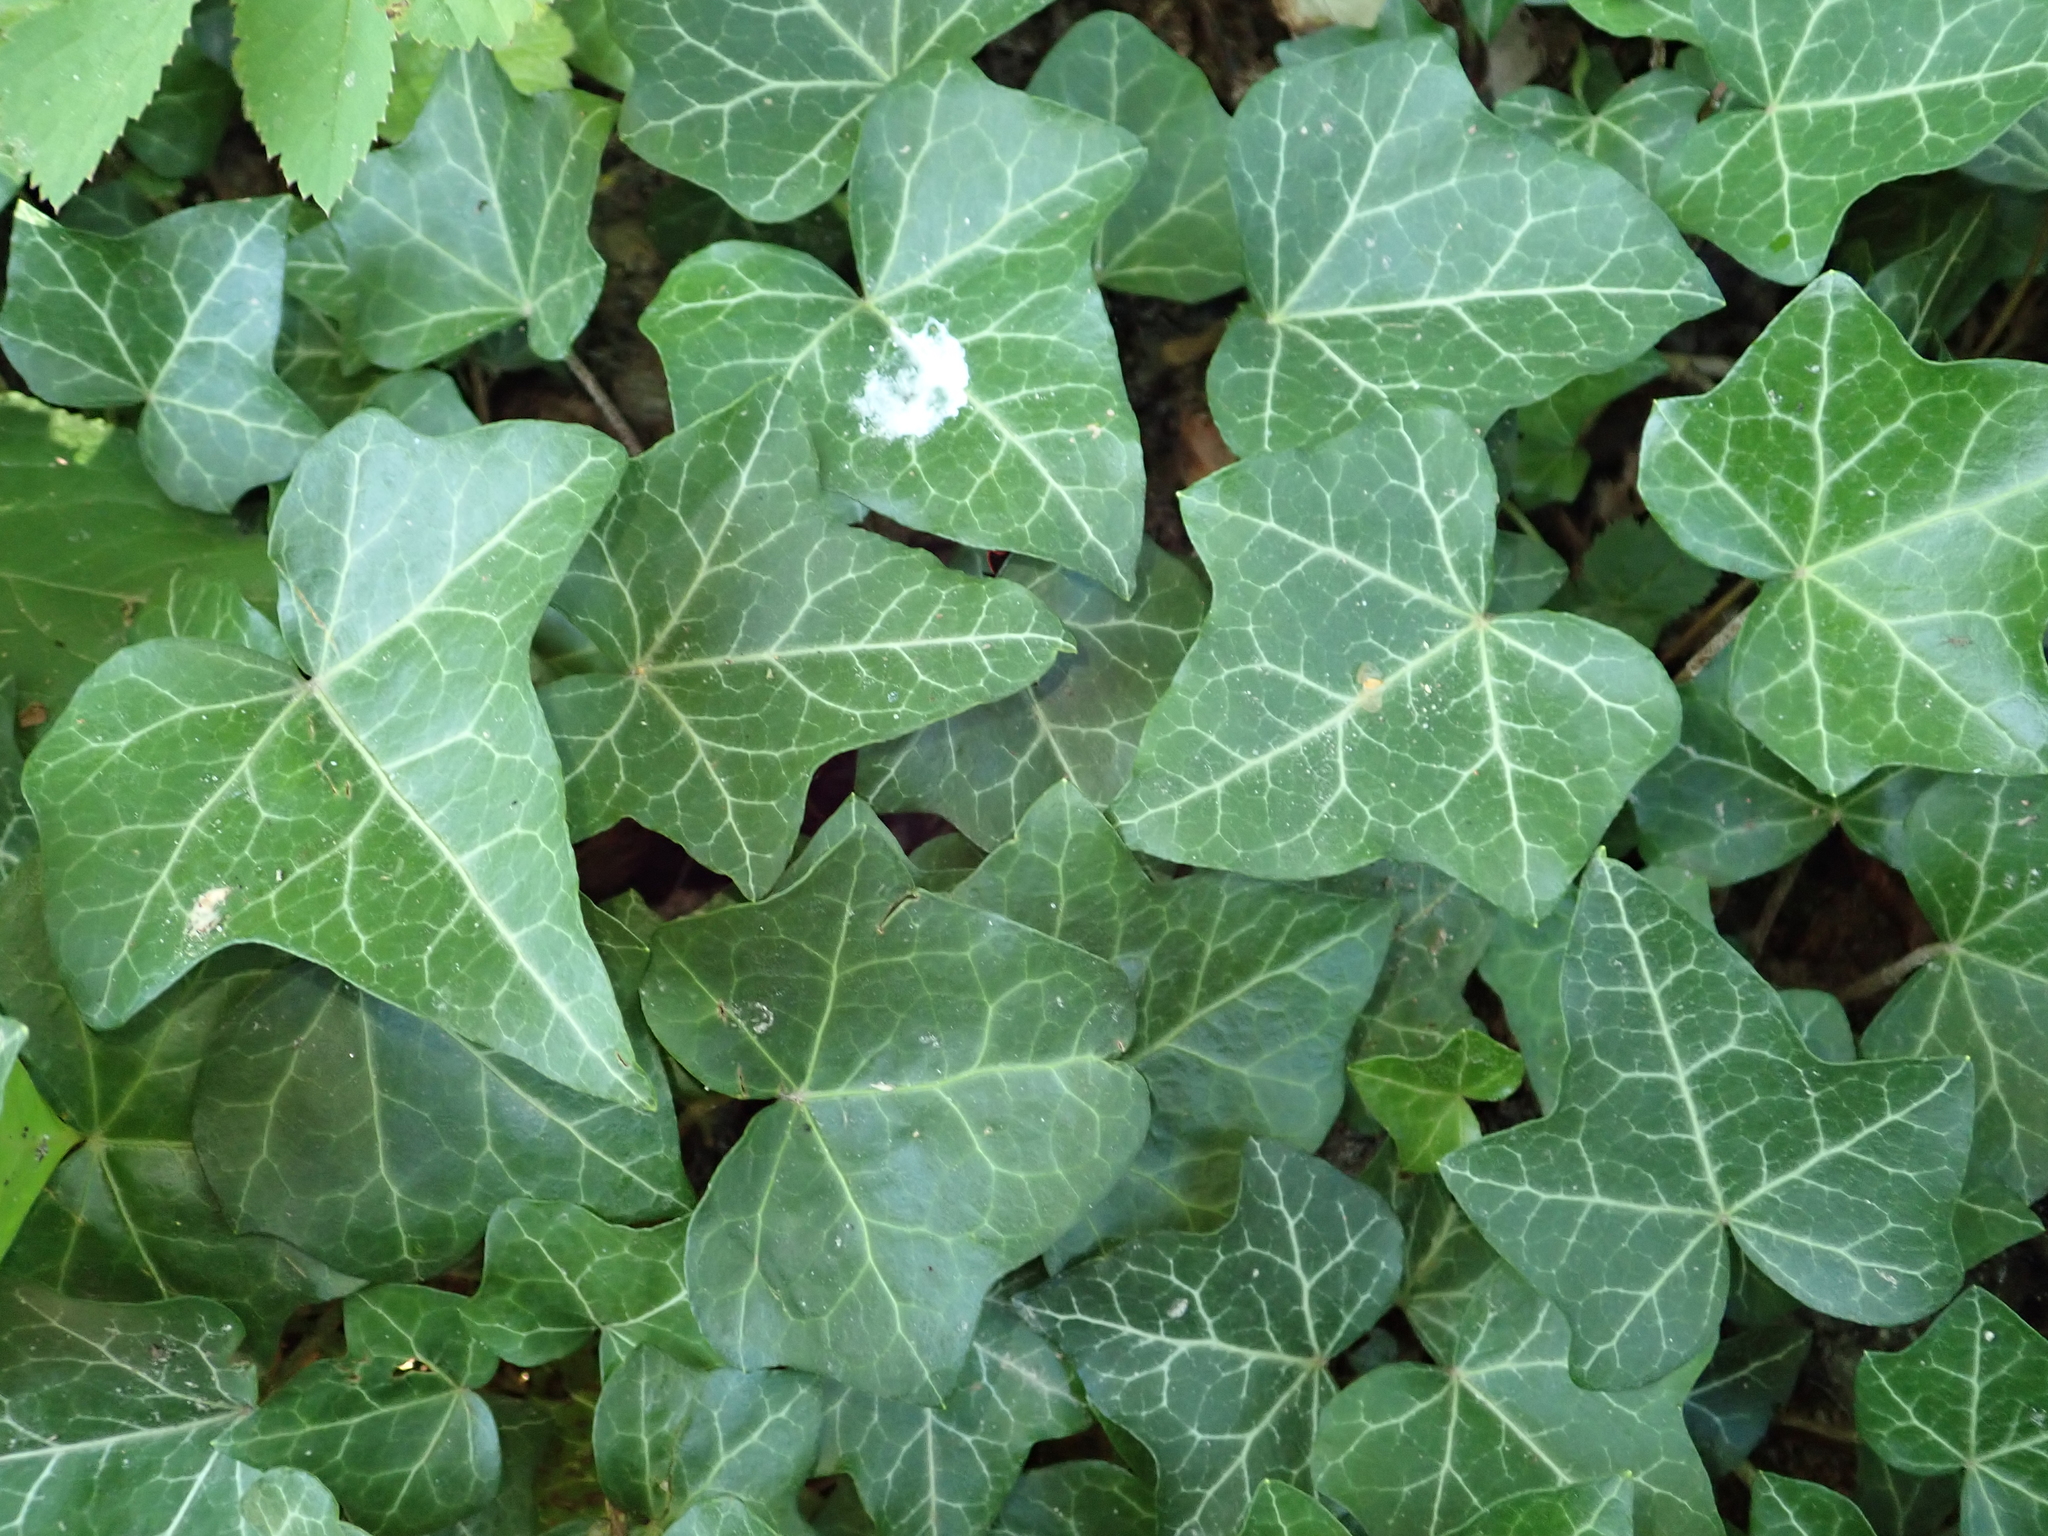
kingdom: Plantae
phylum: Tracheophyta
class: Magnoliopsida
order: Apiales
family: Araliaceae
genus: Hedera
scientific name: Hedera helix
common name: Ivy
